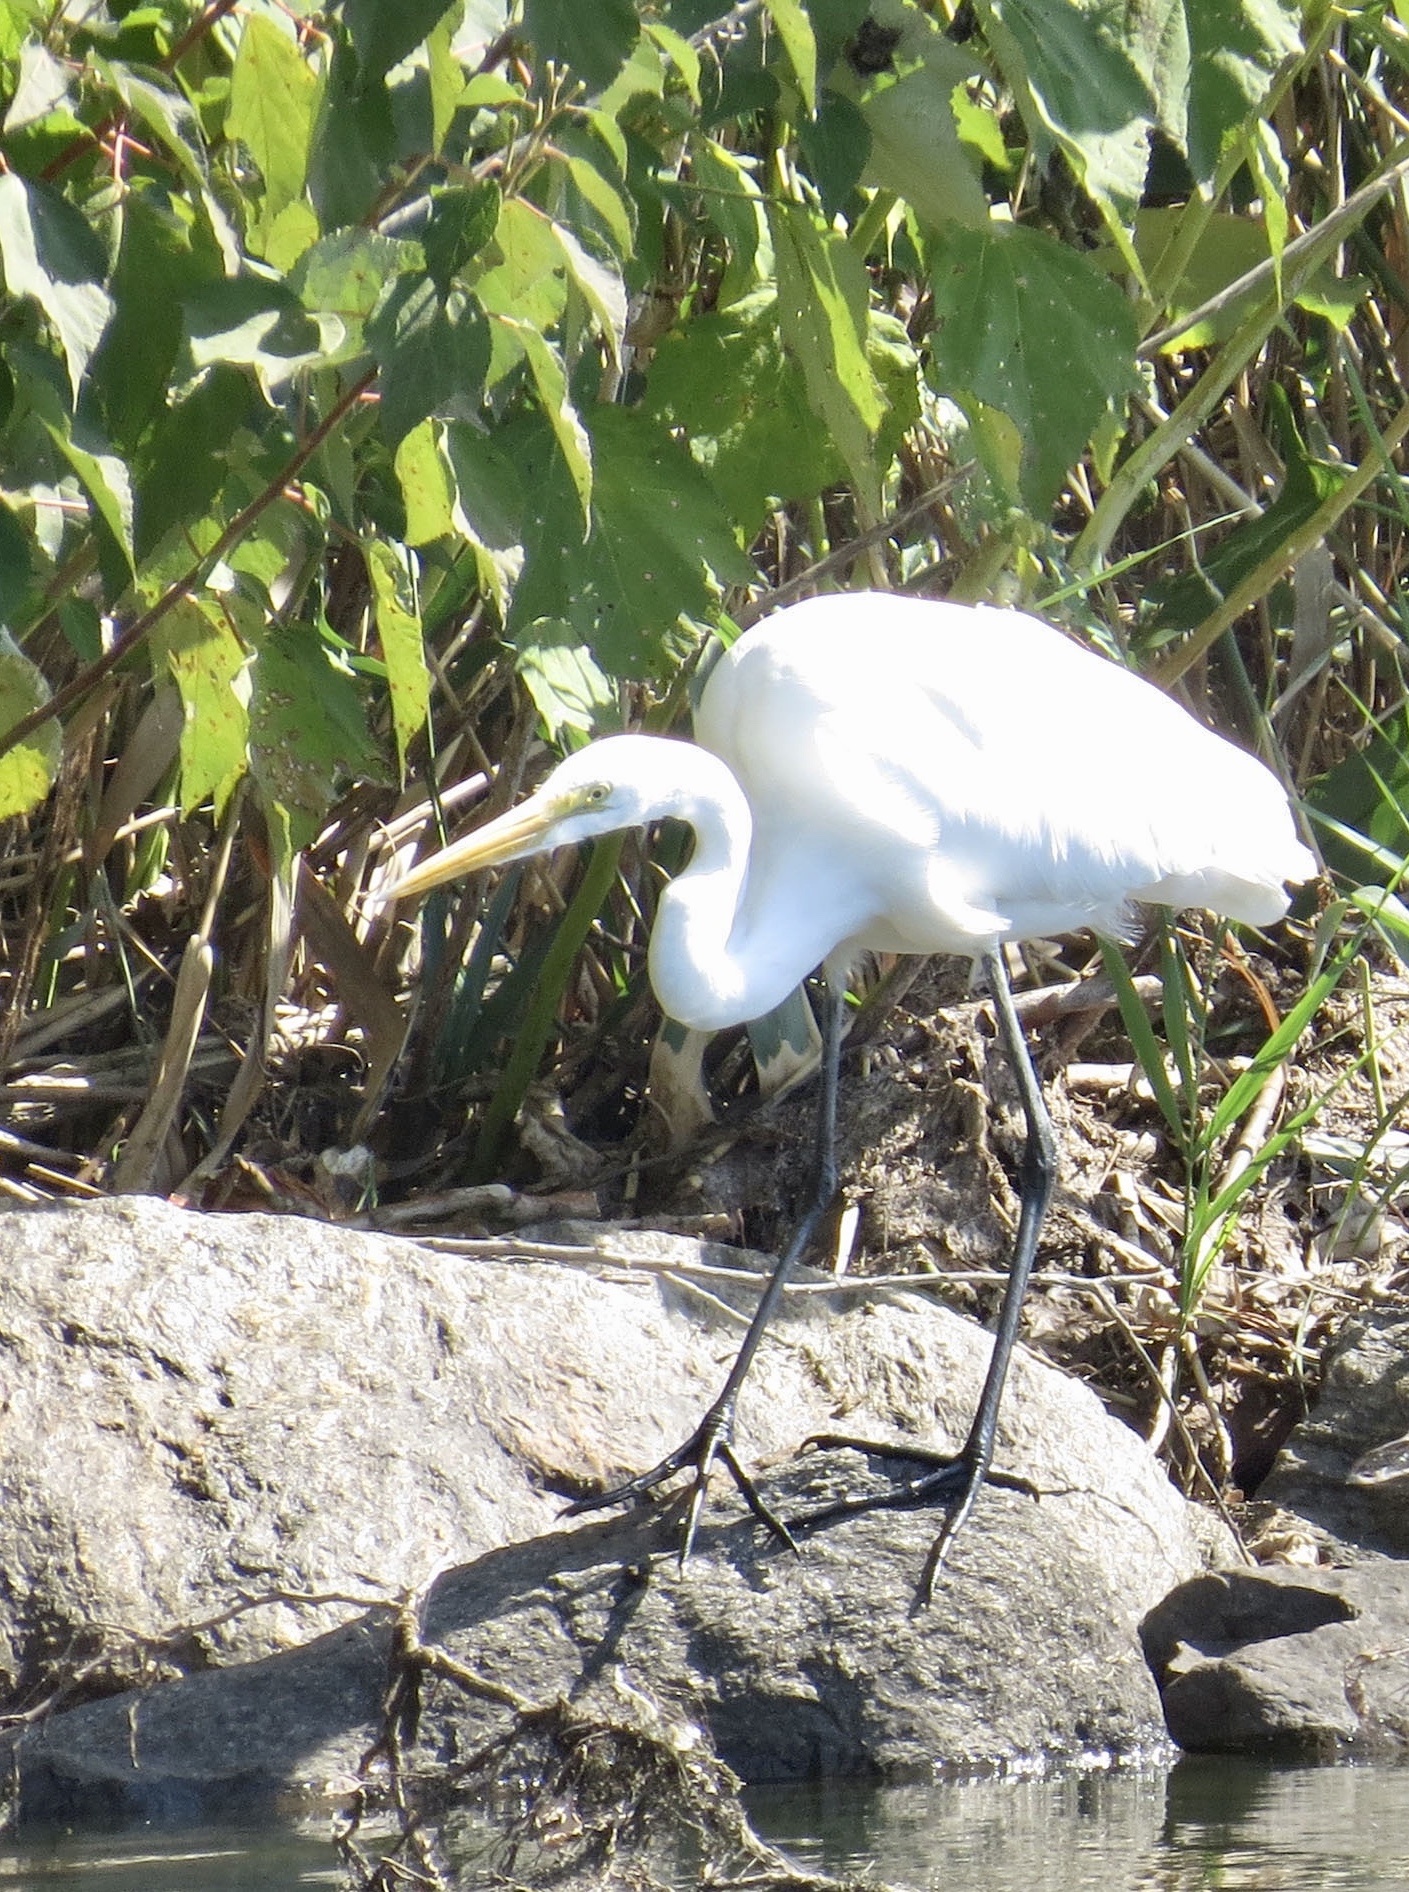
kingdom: Animalia
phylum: Chordata
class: Aves
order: Pelecaniformes
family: Ardeidae
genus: Ardea
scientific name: Ardea alba
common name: Great egret
